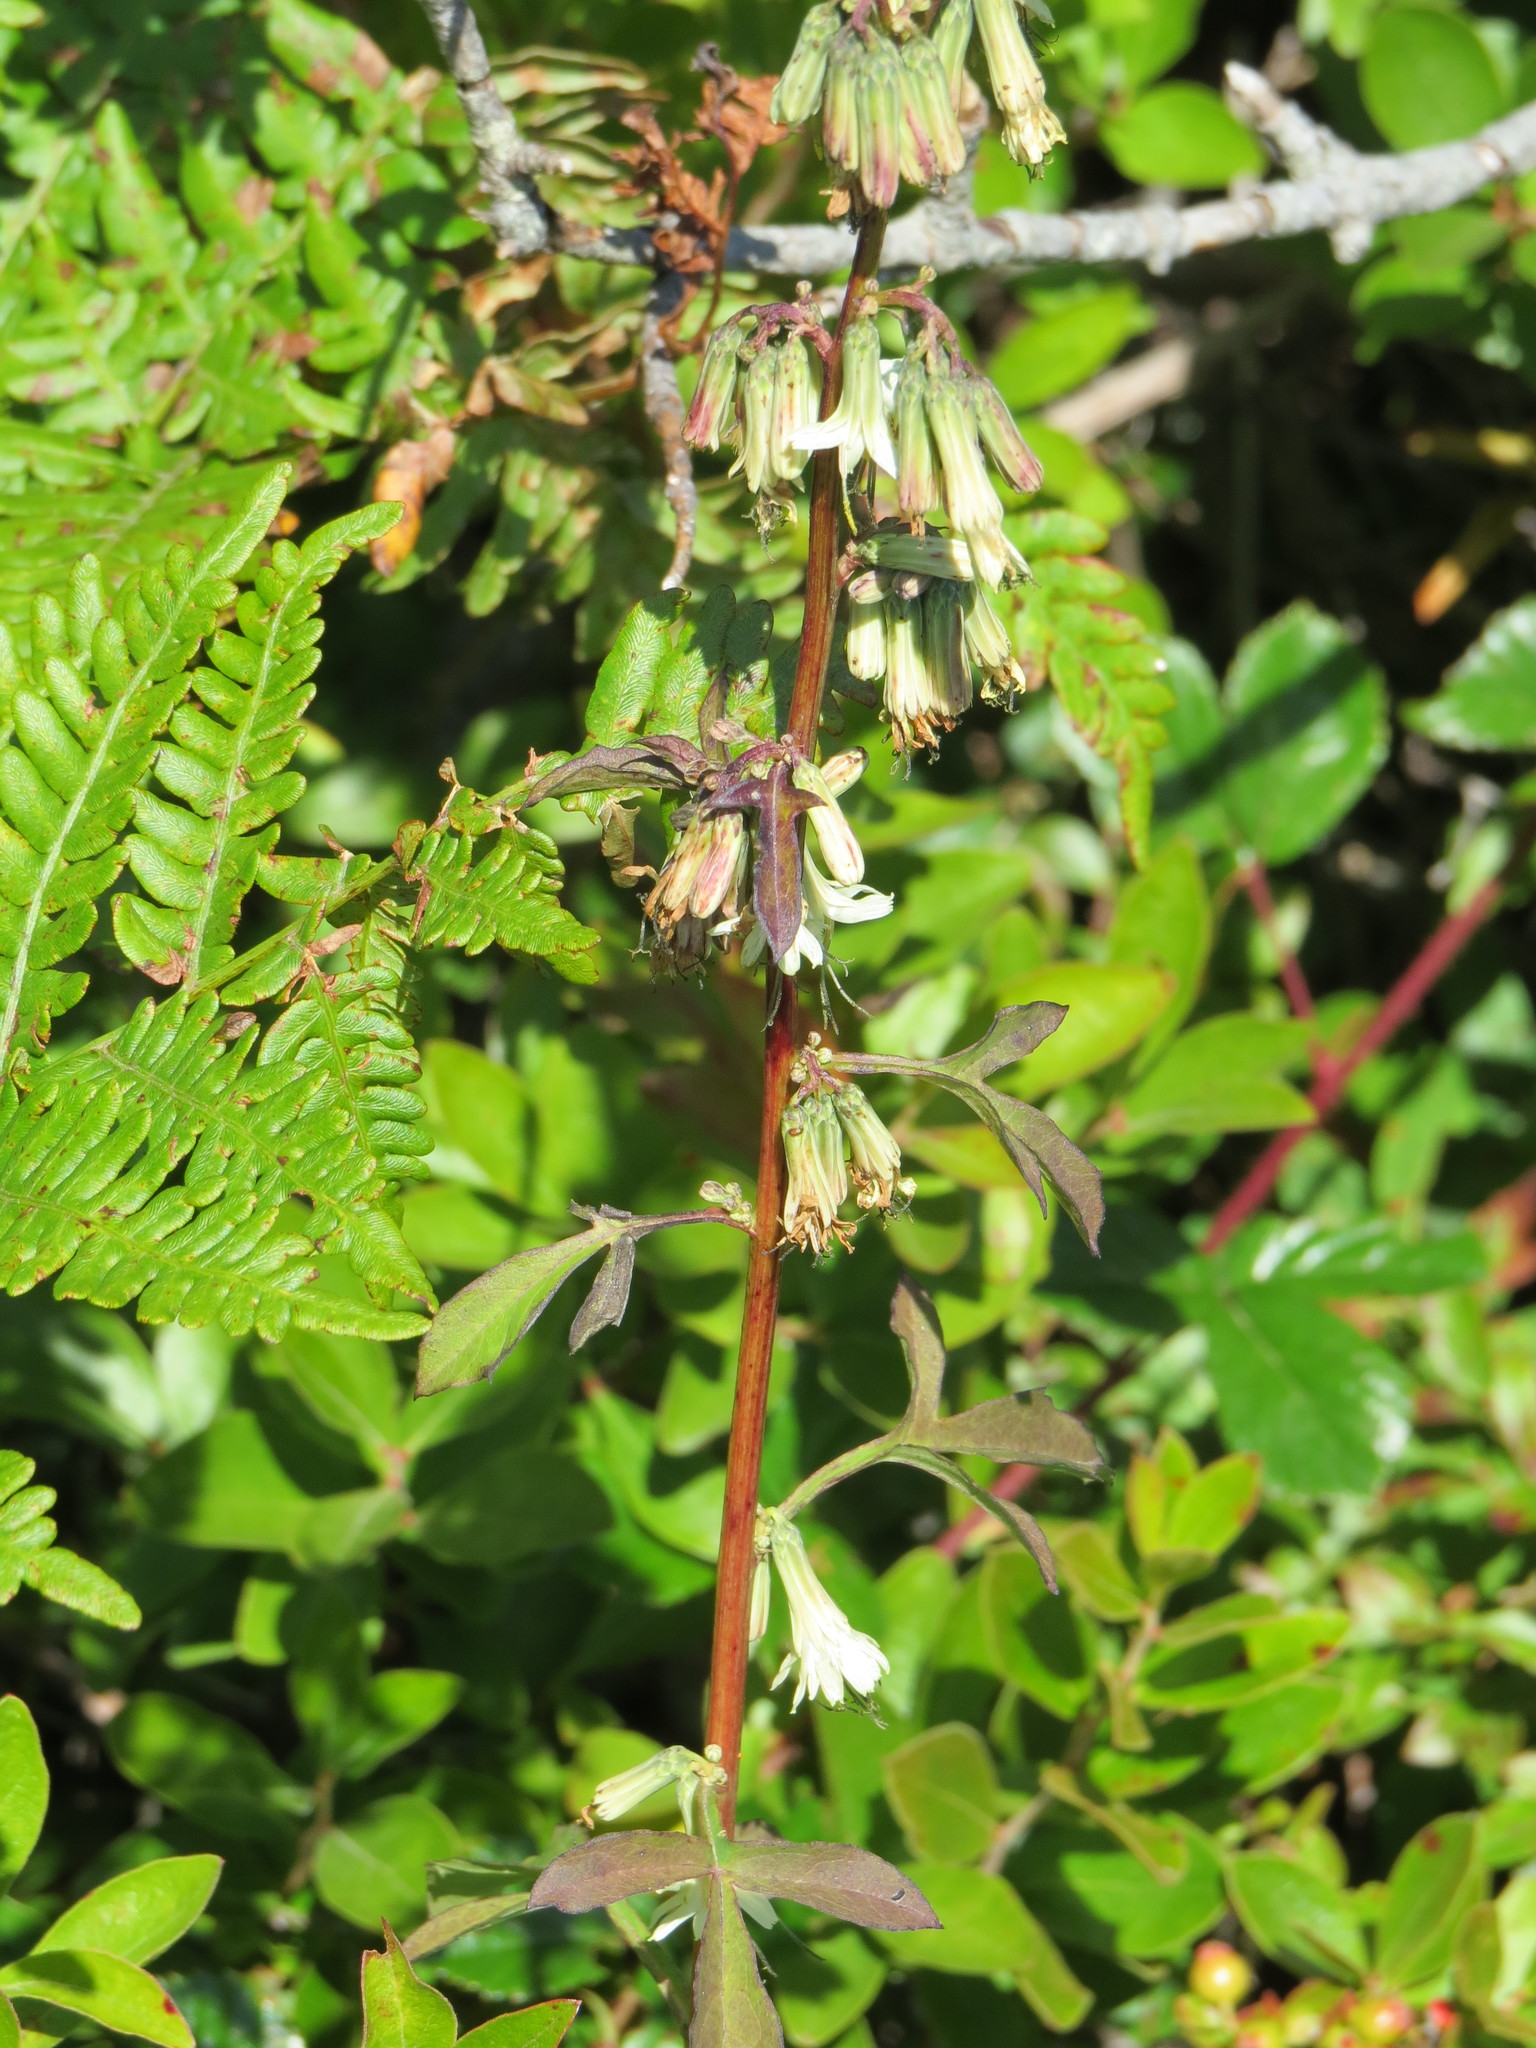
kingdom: Plantae
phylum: Tracheophyta
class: Magnoliopsida
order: Asterales
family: Asteraceae
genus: Nabalus
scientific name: Nabalus trifoliolatus
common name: Gall-of-the-earth
